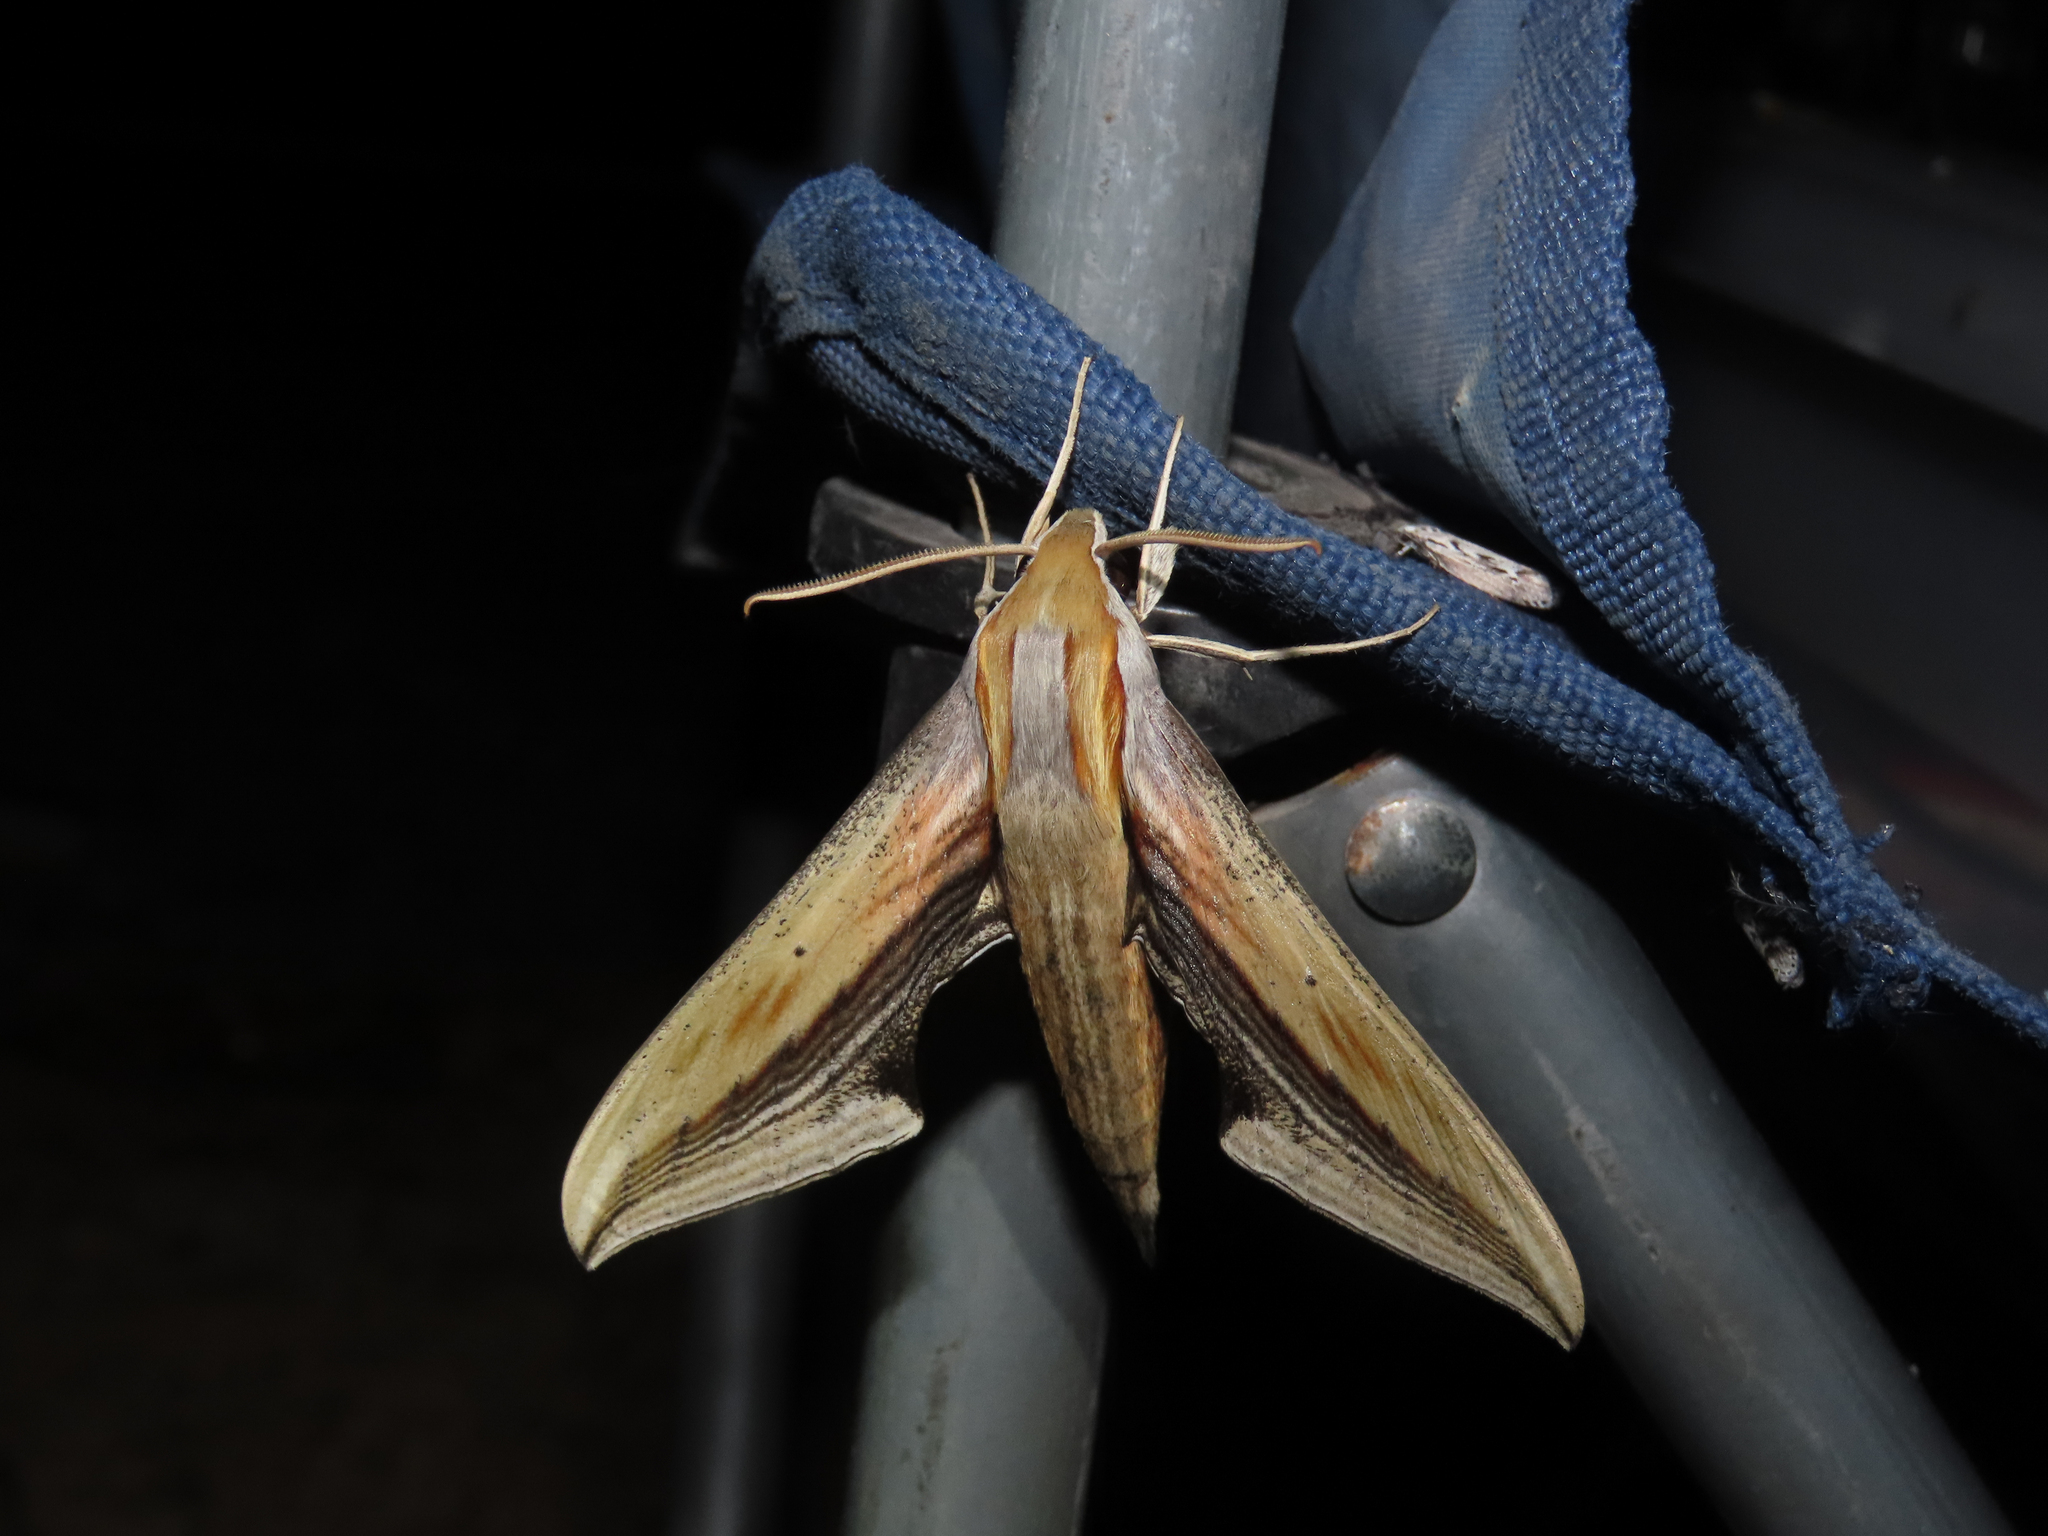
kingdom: Animalia
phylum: Arthropoda
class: Insecta
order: Lepidoptera
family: Sphingidae
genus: Xylophanes
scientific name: Xylophanes falco
